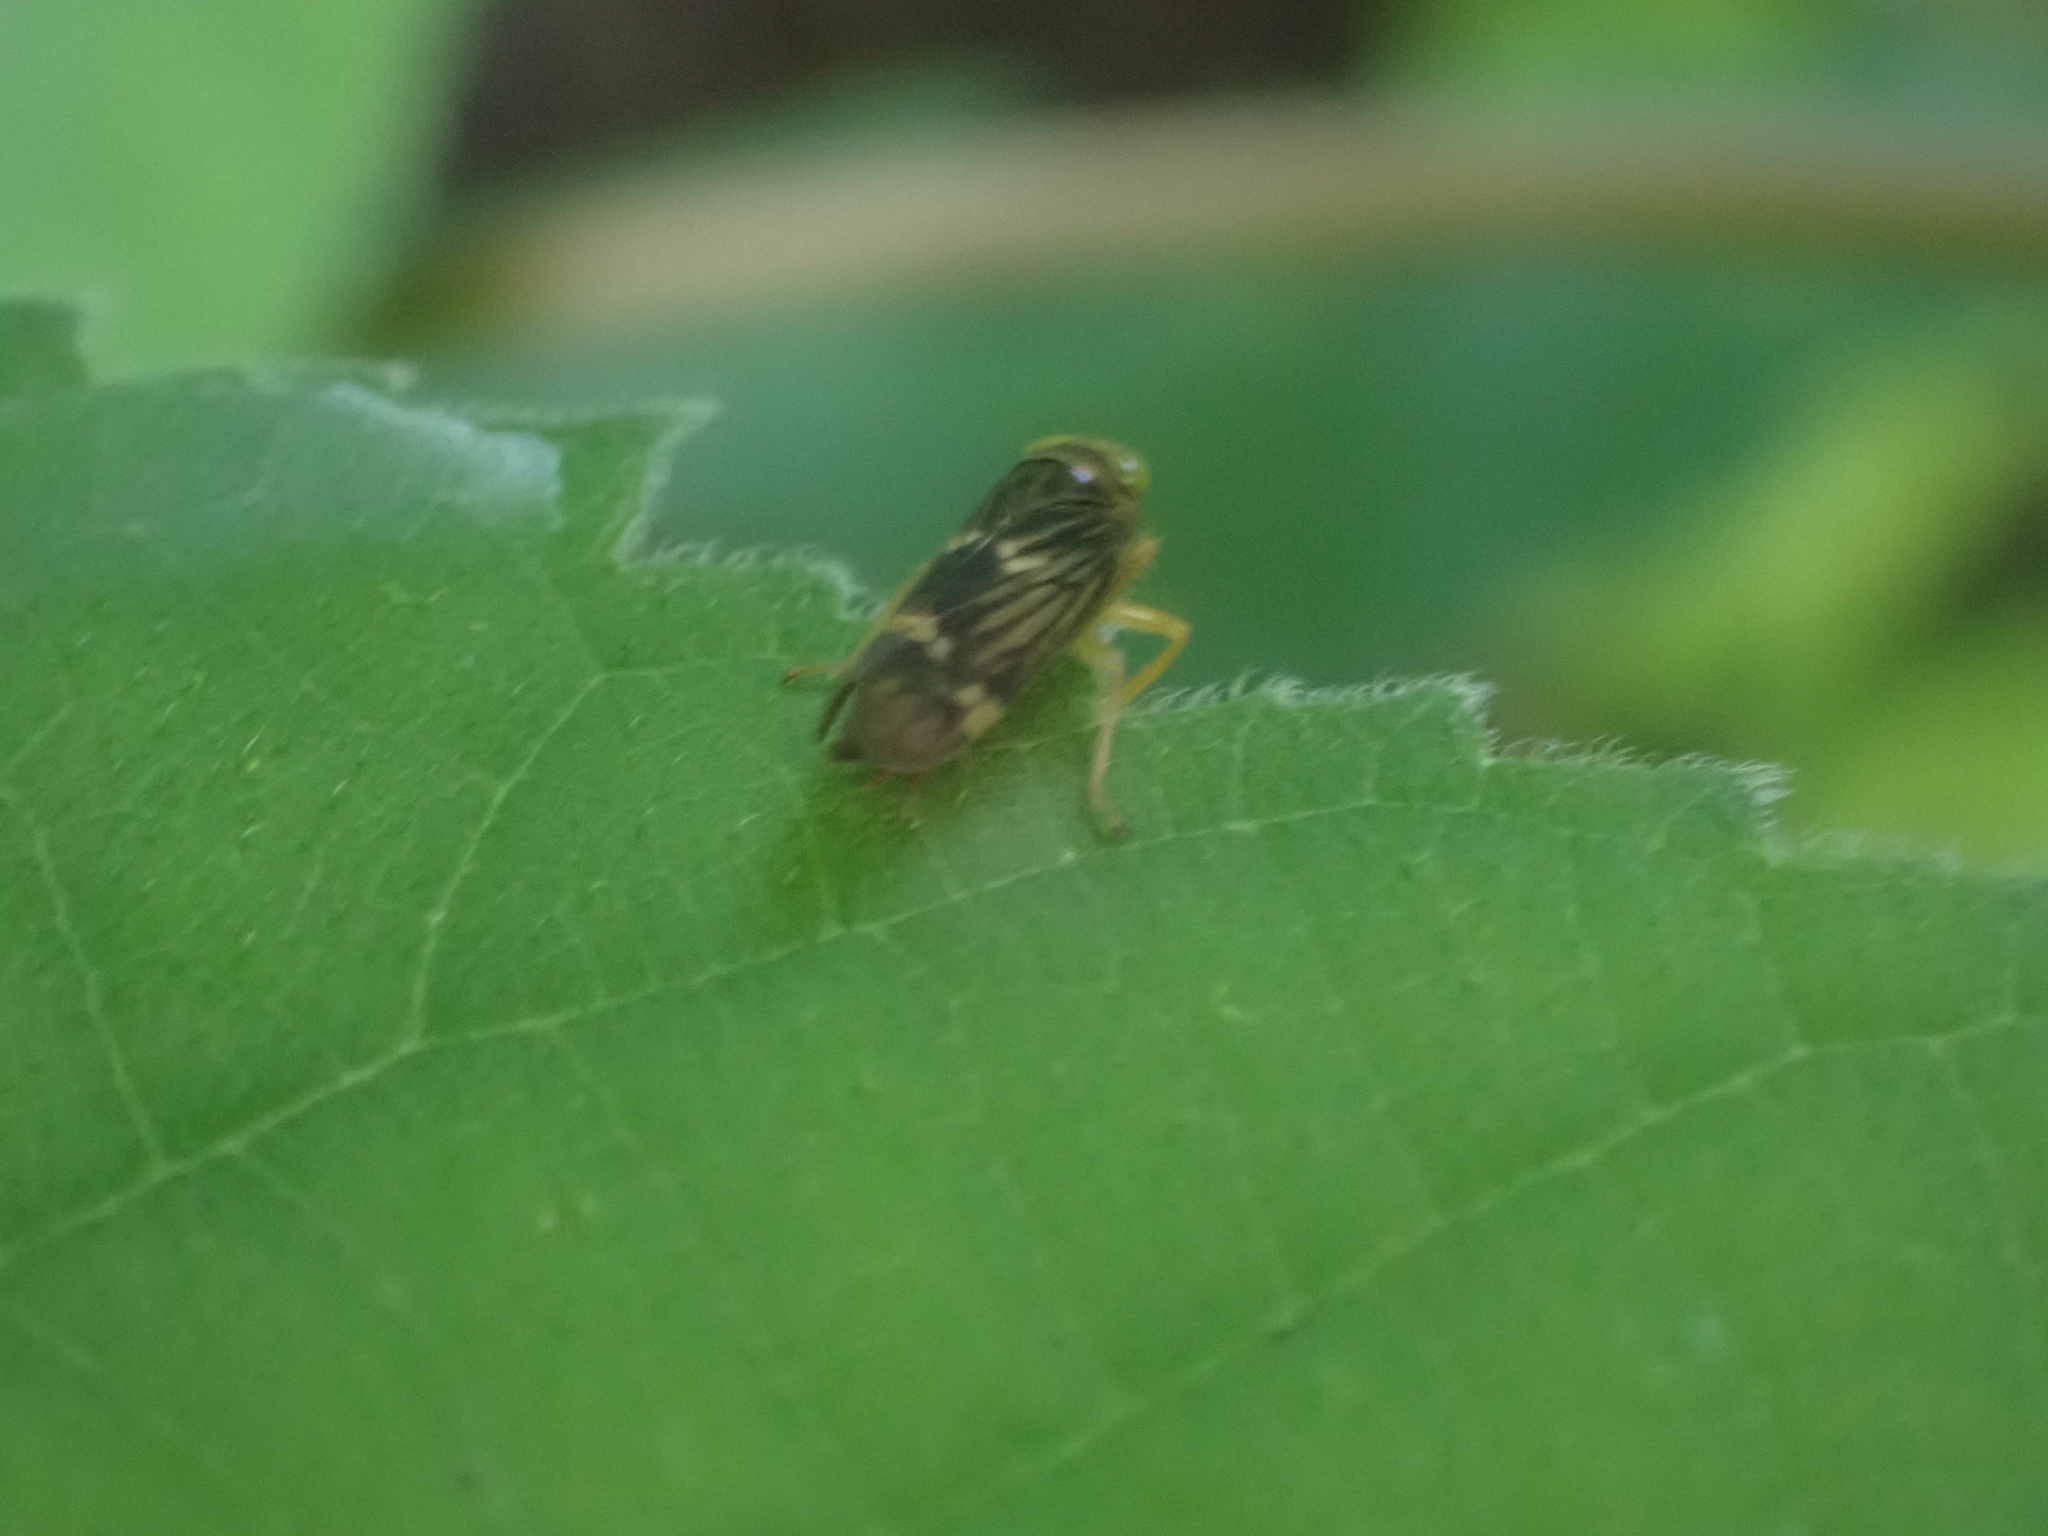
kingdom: Animalia
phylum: Arthropoda
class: Insecta
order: Hemiptera
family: Cicadellidae
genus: Jikradia
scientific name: Jikradia olitoria
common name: Coppery leafhopper
